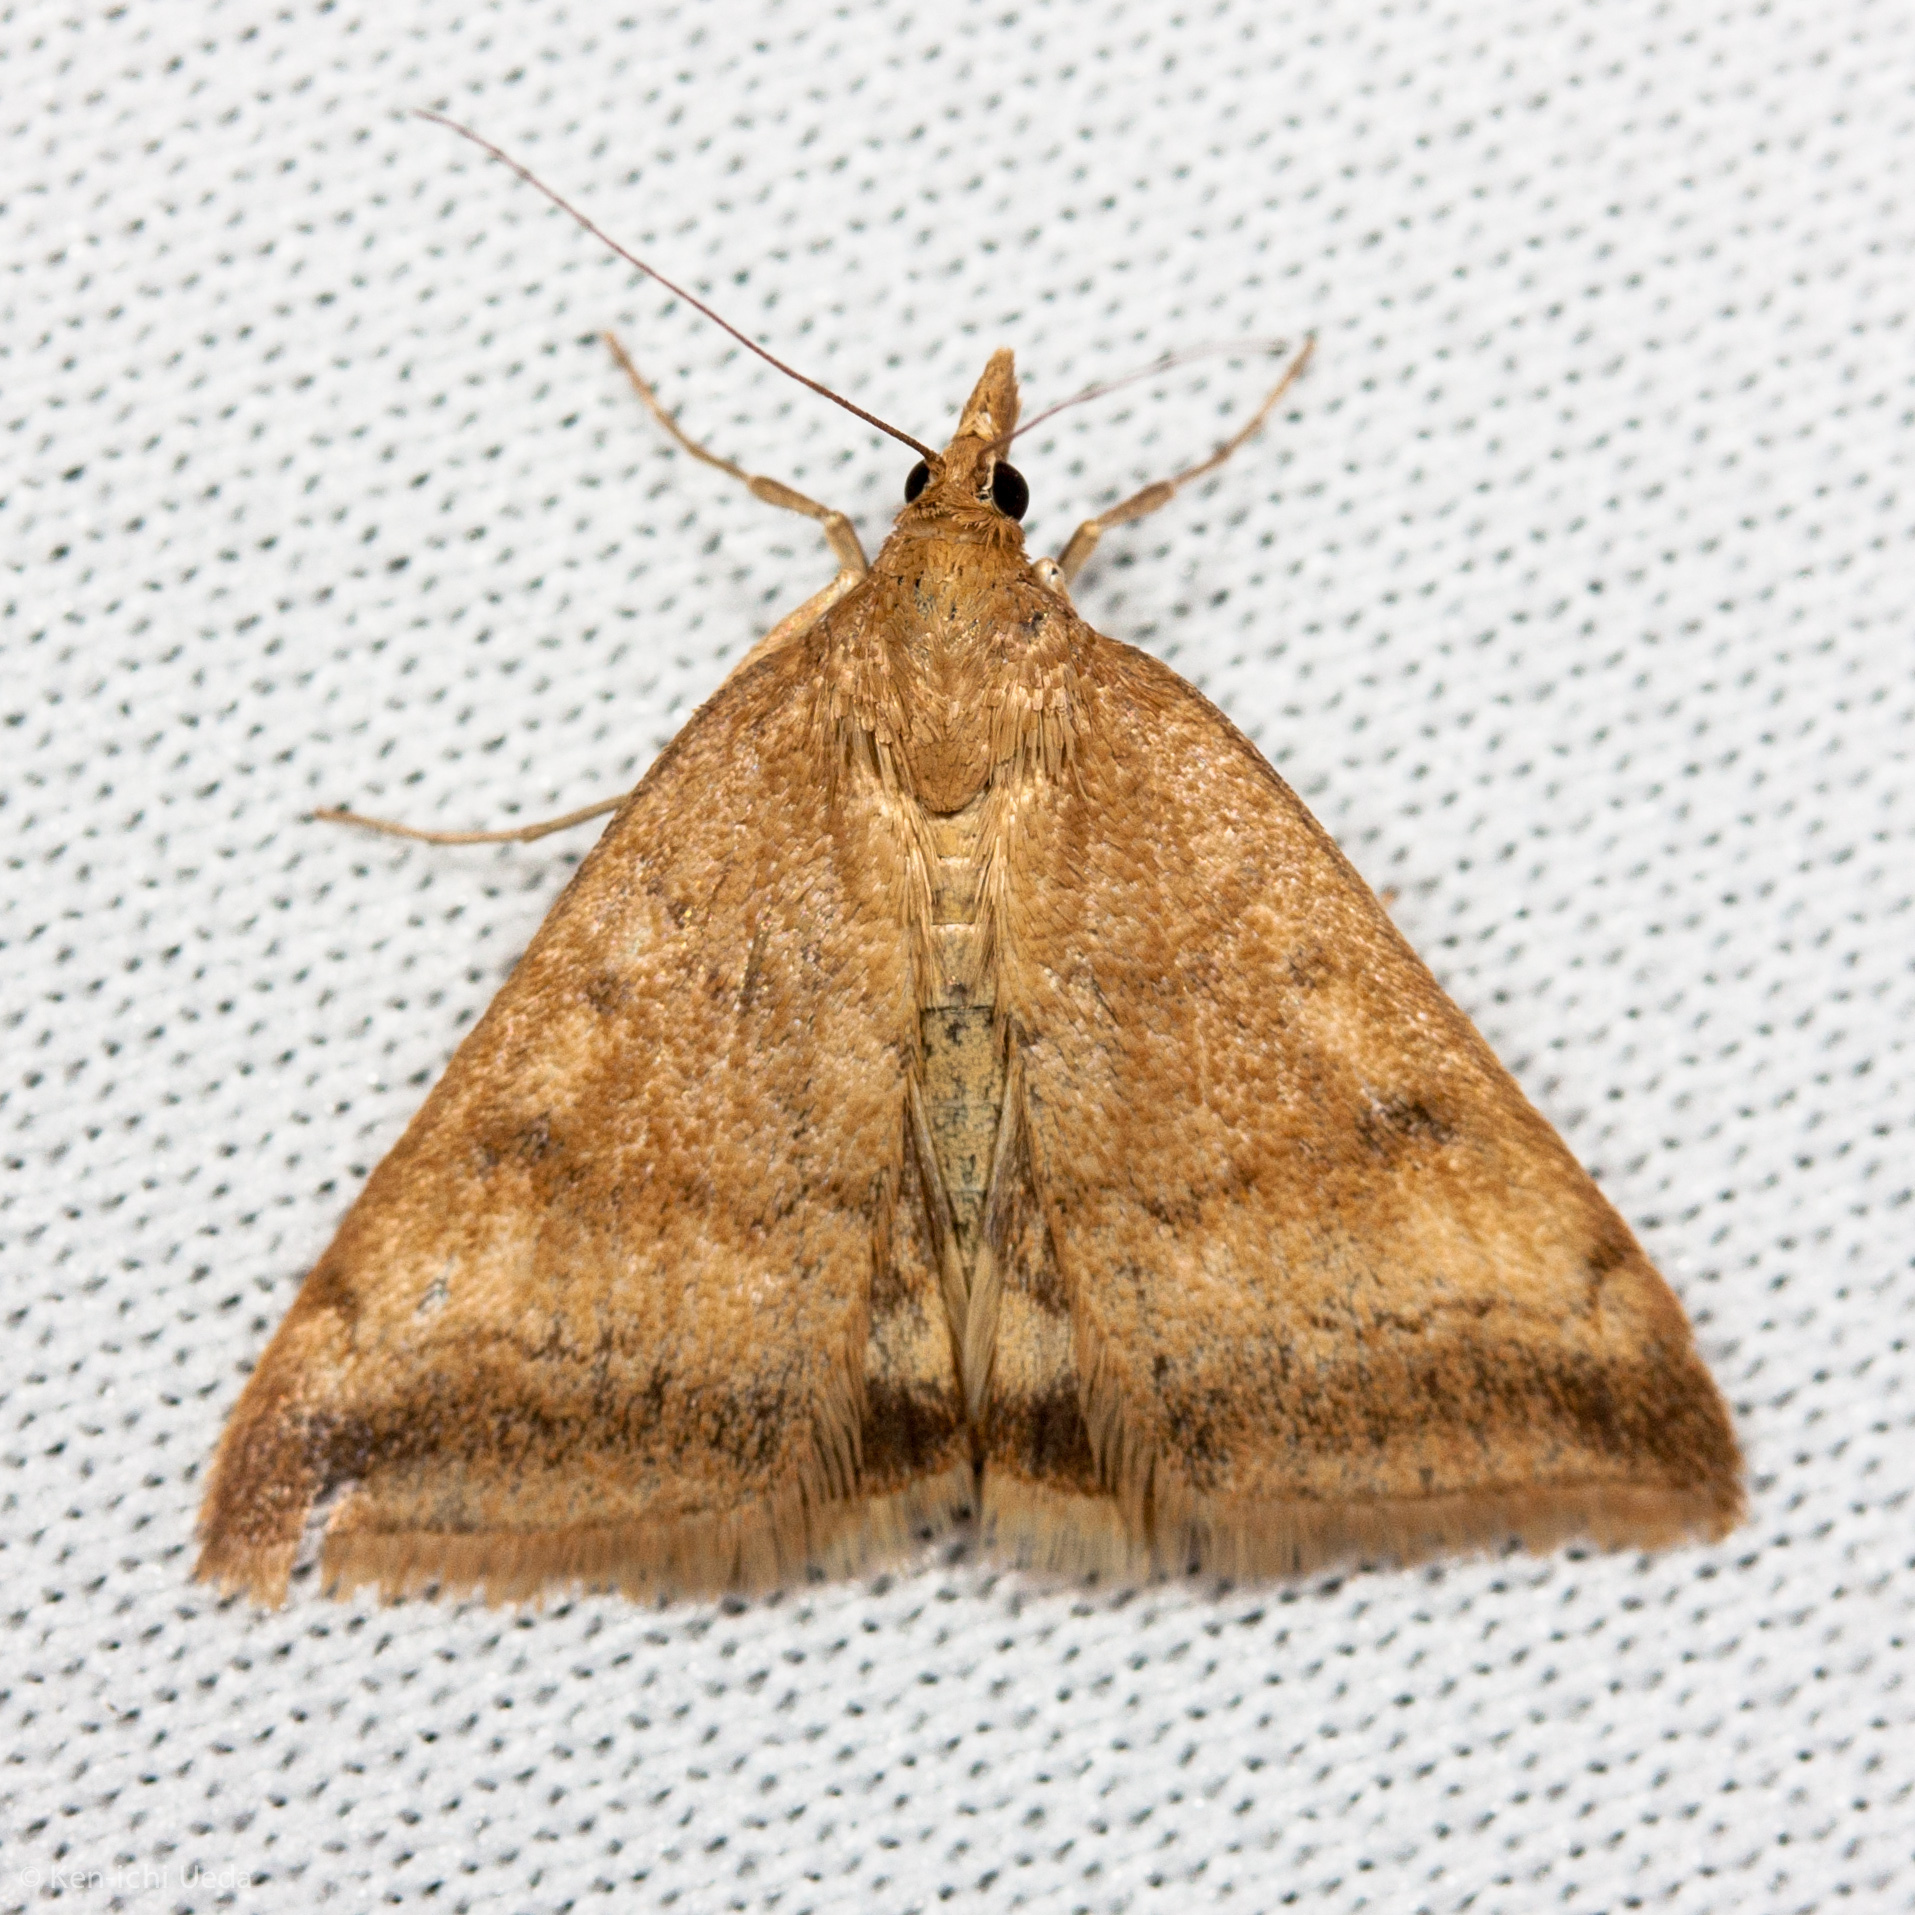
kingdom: Animalia
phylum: Arthropoda
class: Insecta
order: Lepidoptera
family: Crambidae
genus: Pyrausta
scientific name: Pyrausta fodinalis
